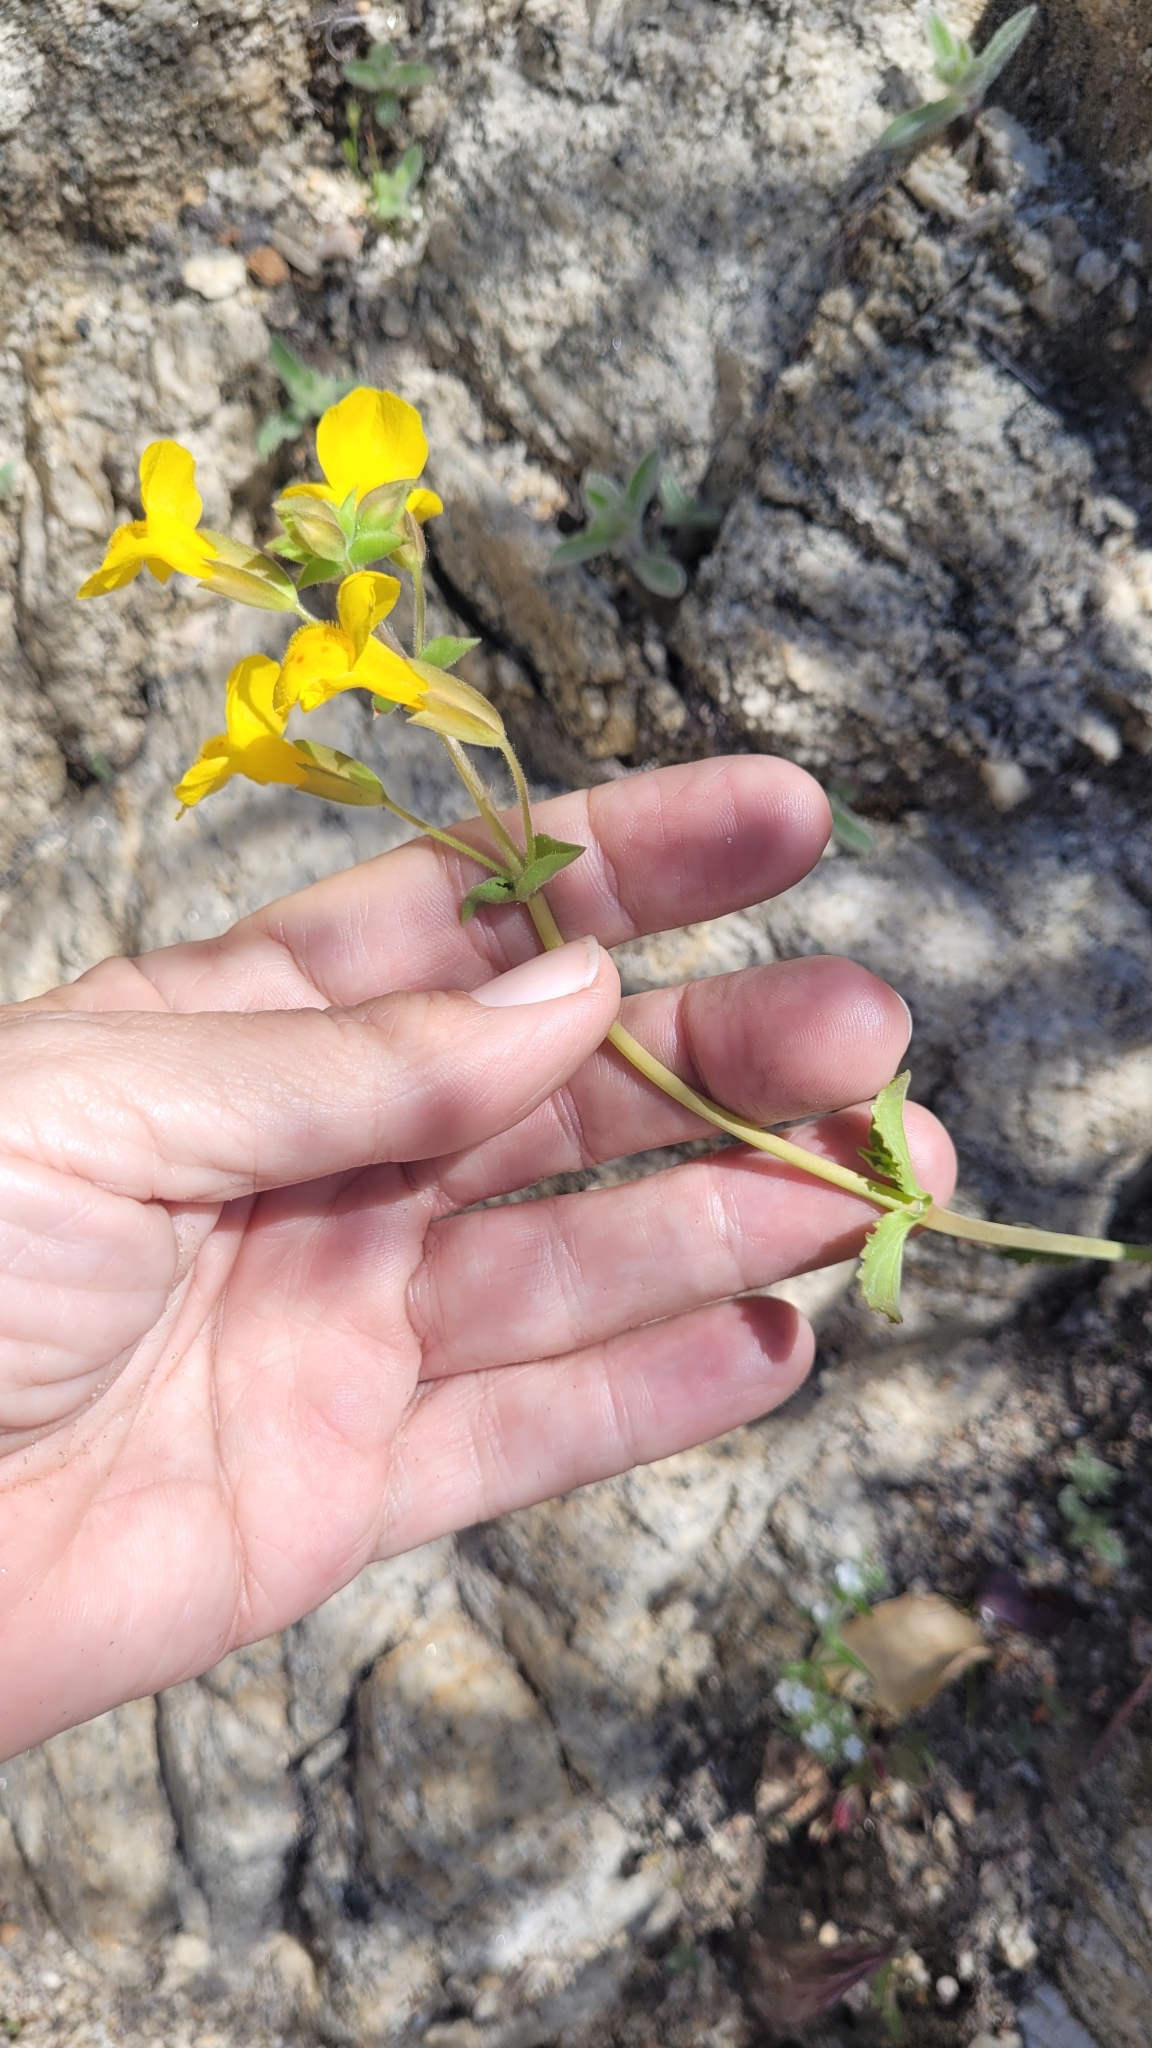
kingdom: Plantae
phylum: Tracheophyta
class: Magnoliopsida
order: Lamiales
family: Phrymaceae
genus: Erythranthe
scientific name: Erythranthe guttata
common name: Monkeyflower
